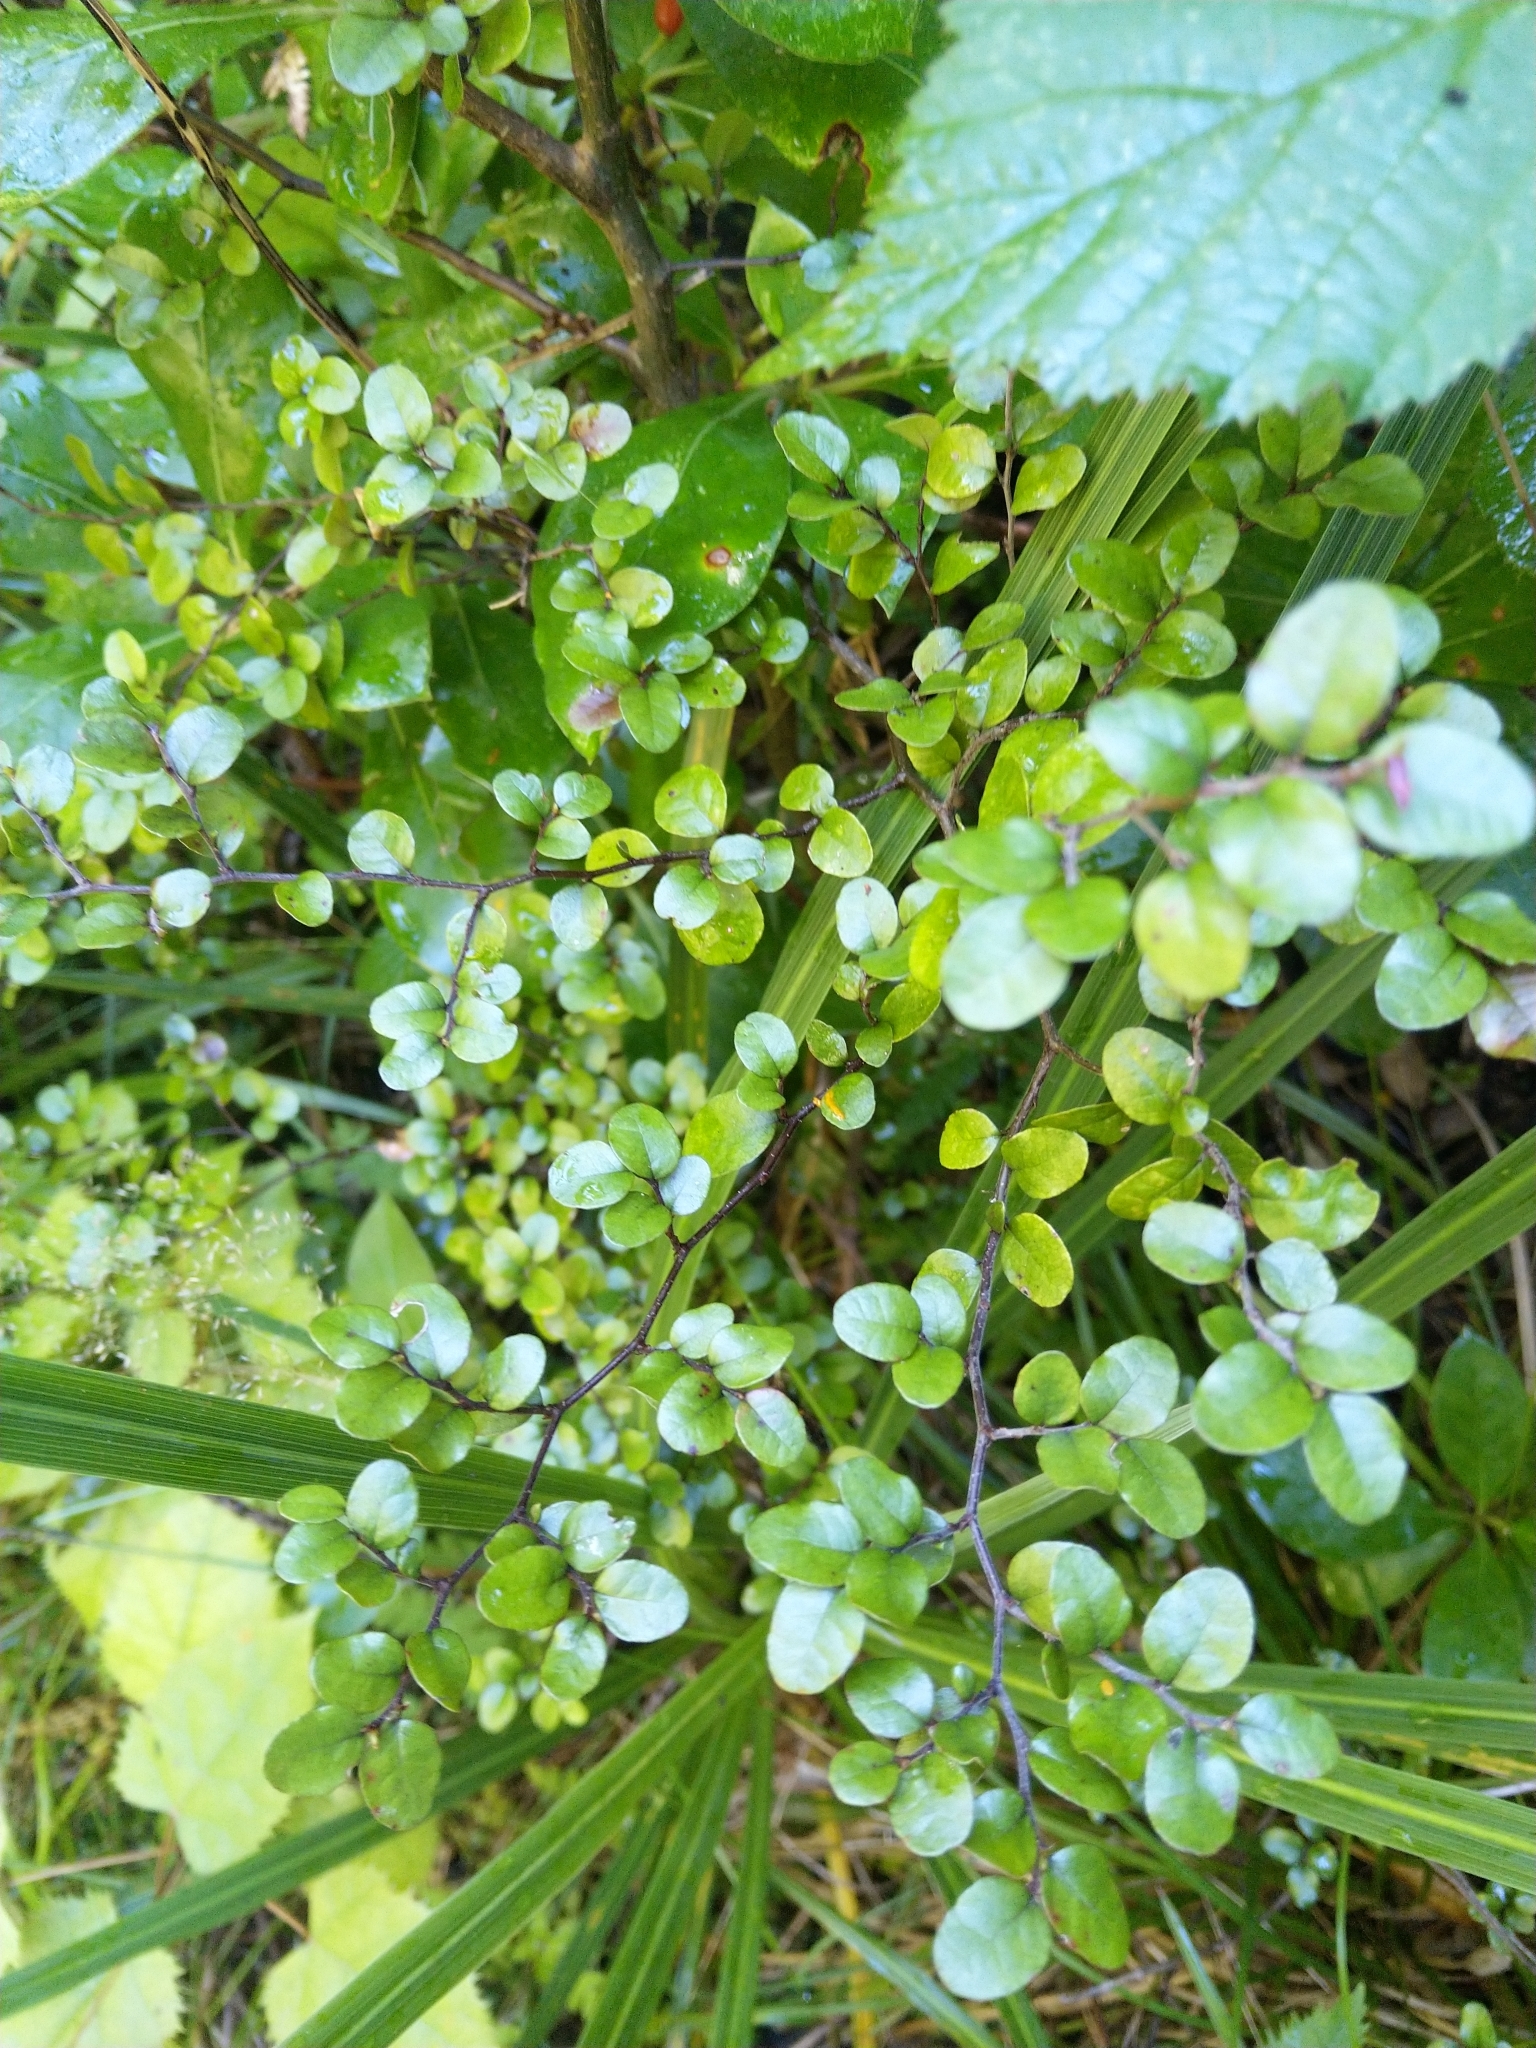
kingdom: Plantae
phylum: Tracheophyta
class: Magnoliopsida
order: Fagales
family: Nothofagaceae
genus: Nothofagus
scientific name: Nothofagus solandri
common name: Black beech
